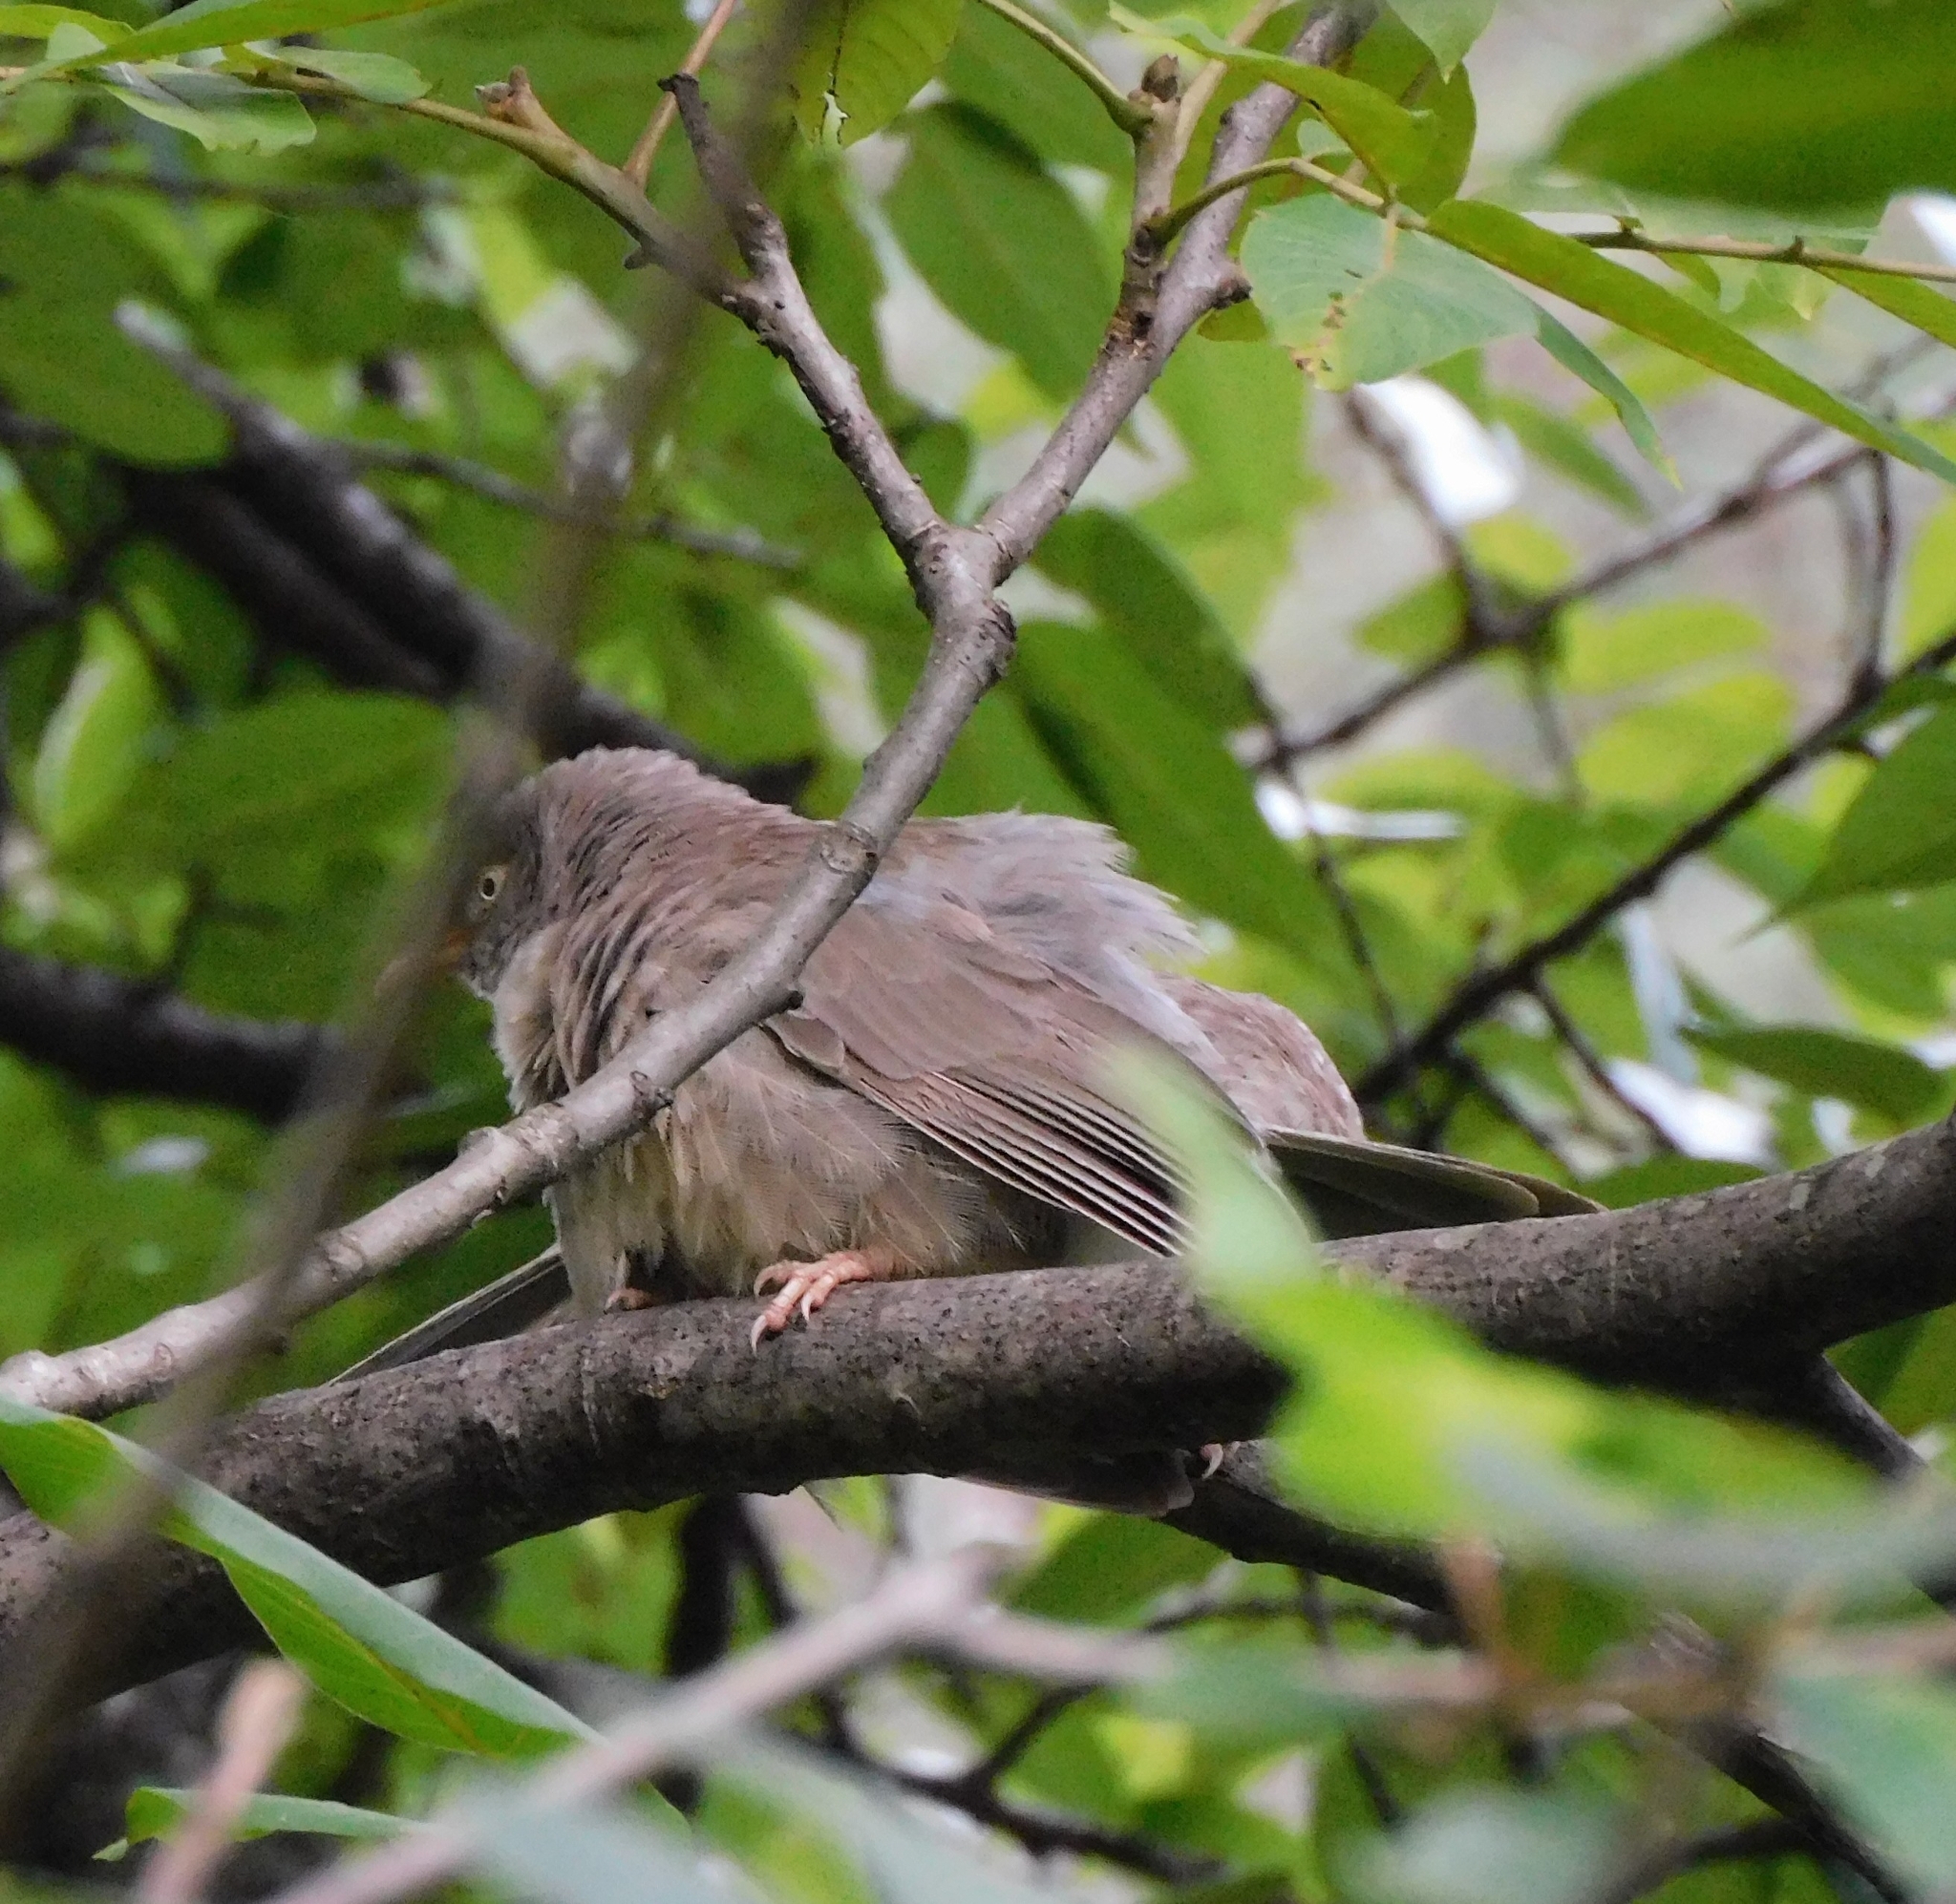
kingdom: Animalia
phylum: Chordata
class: Aves
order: Passeriformes
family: Leiothrichidae
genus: Turdoides
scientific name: Turdoides striata
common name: Jungle babbler
